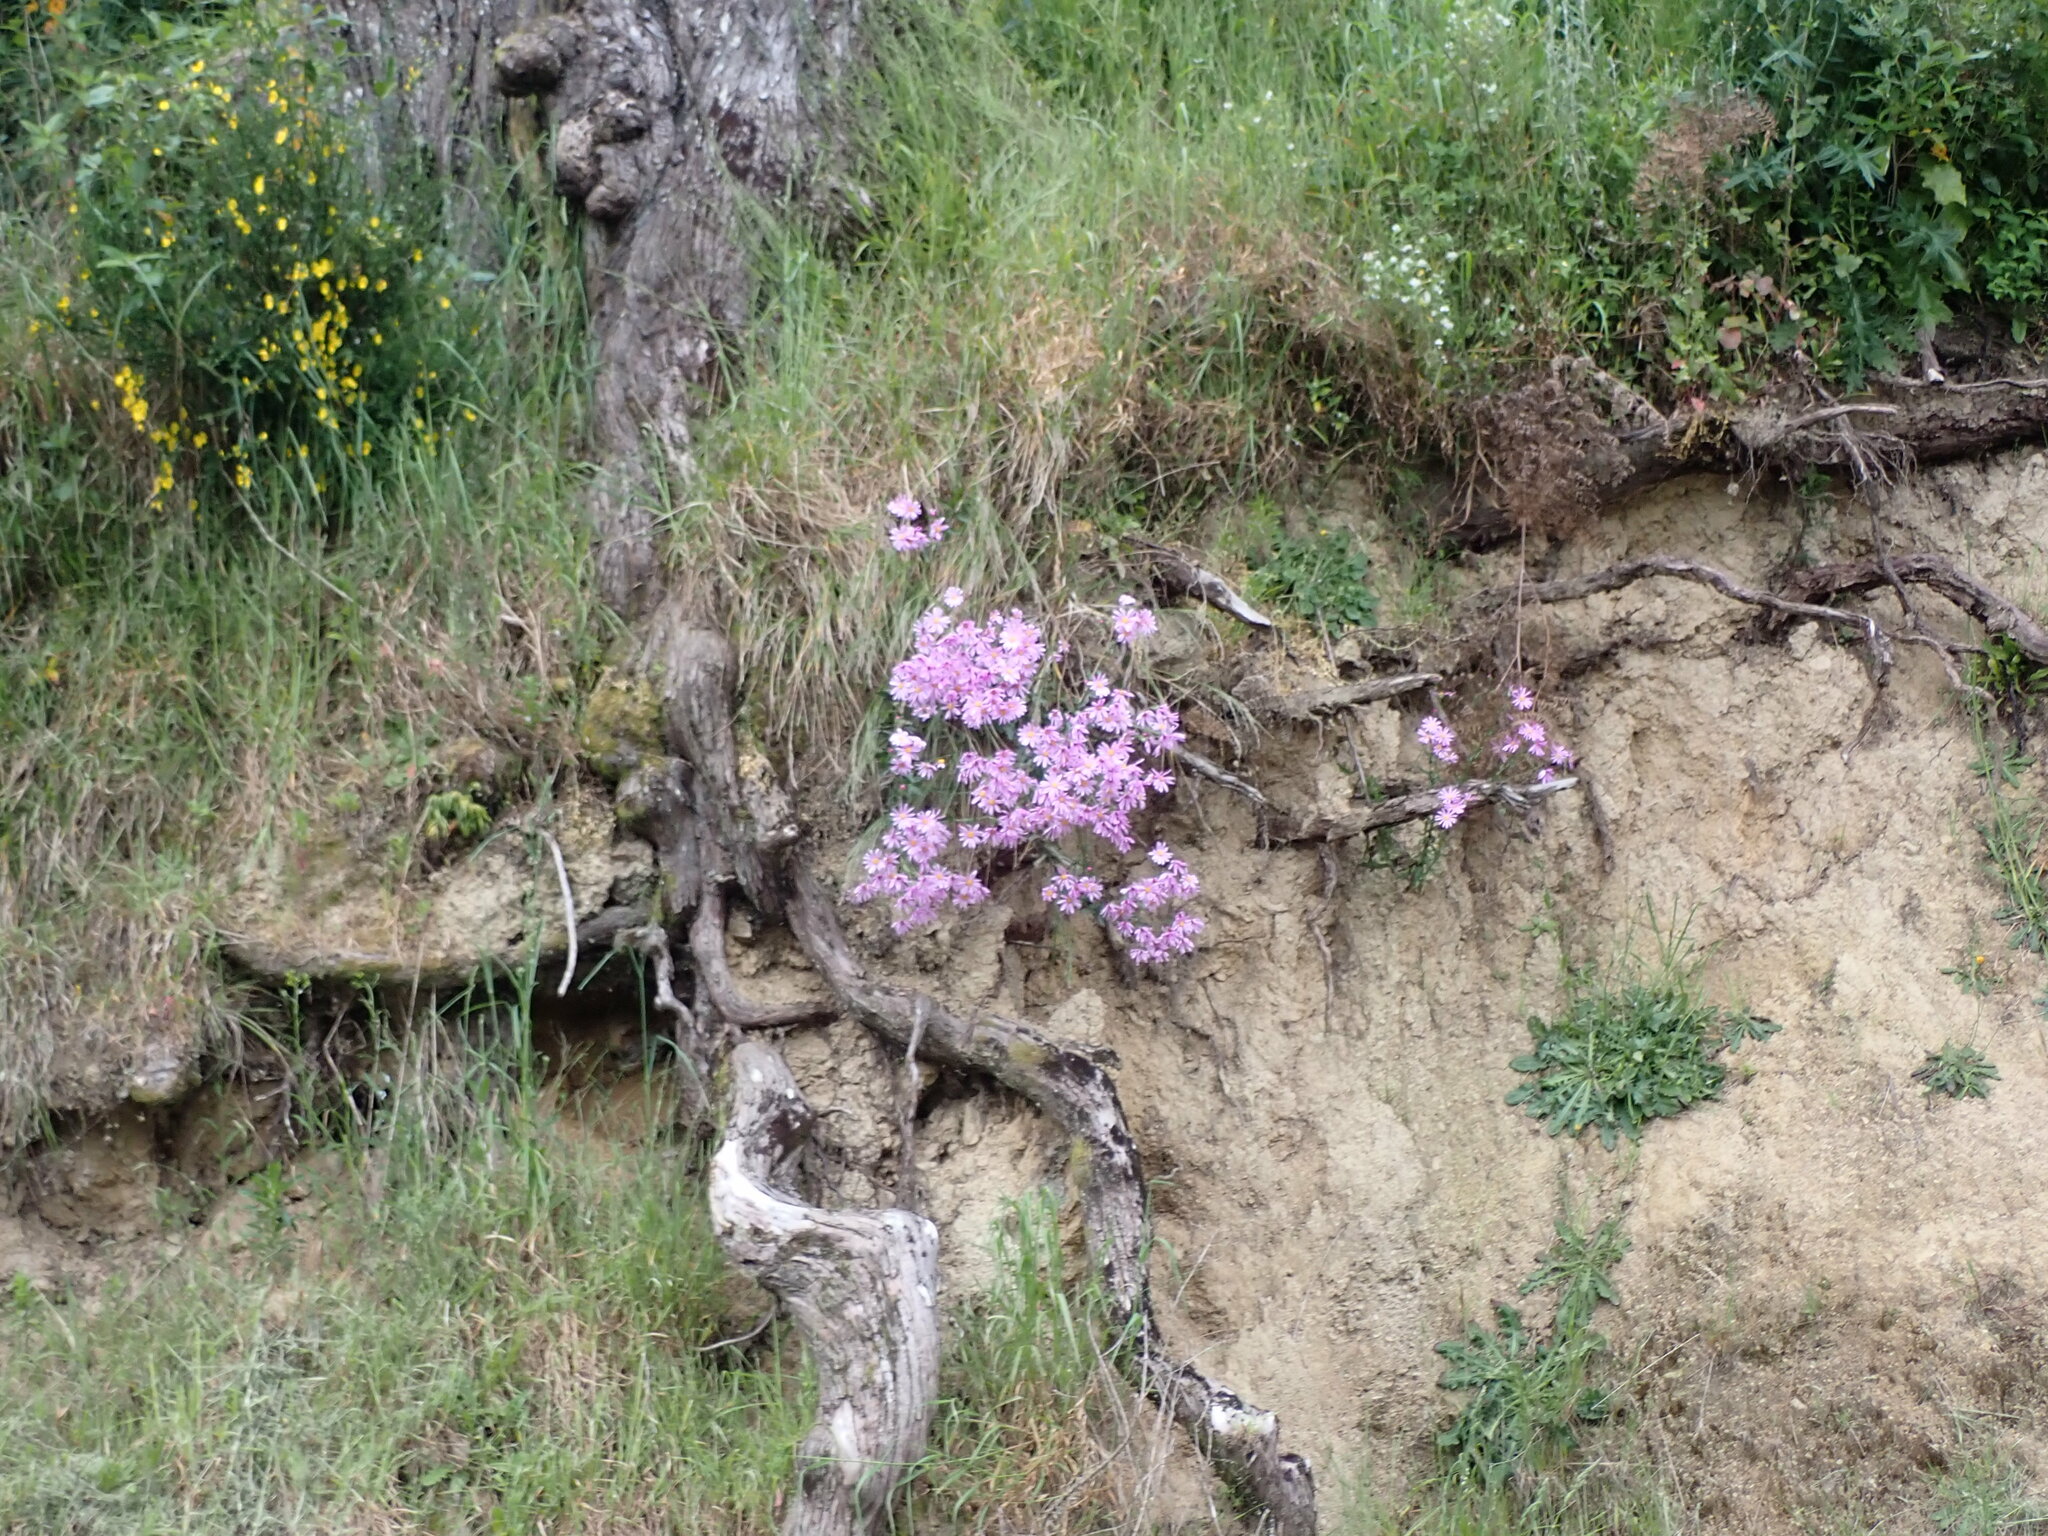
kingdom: Plantae
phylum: Tracheophyta
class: Magnoliopsida
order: Asterales
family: Asteraceae
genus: Senecio
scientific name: Senecio glastifolius
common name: Woad-leaved ragwort
